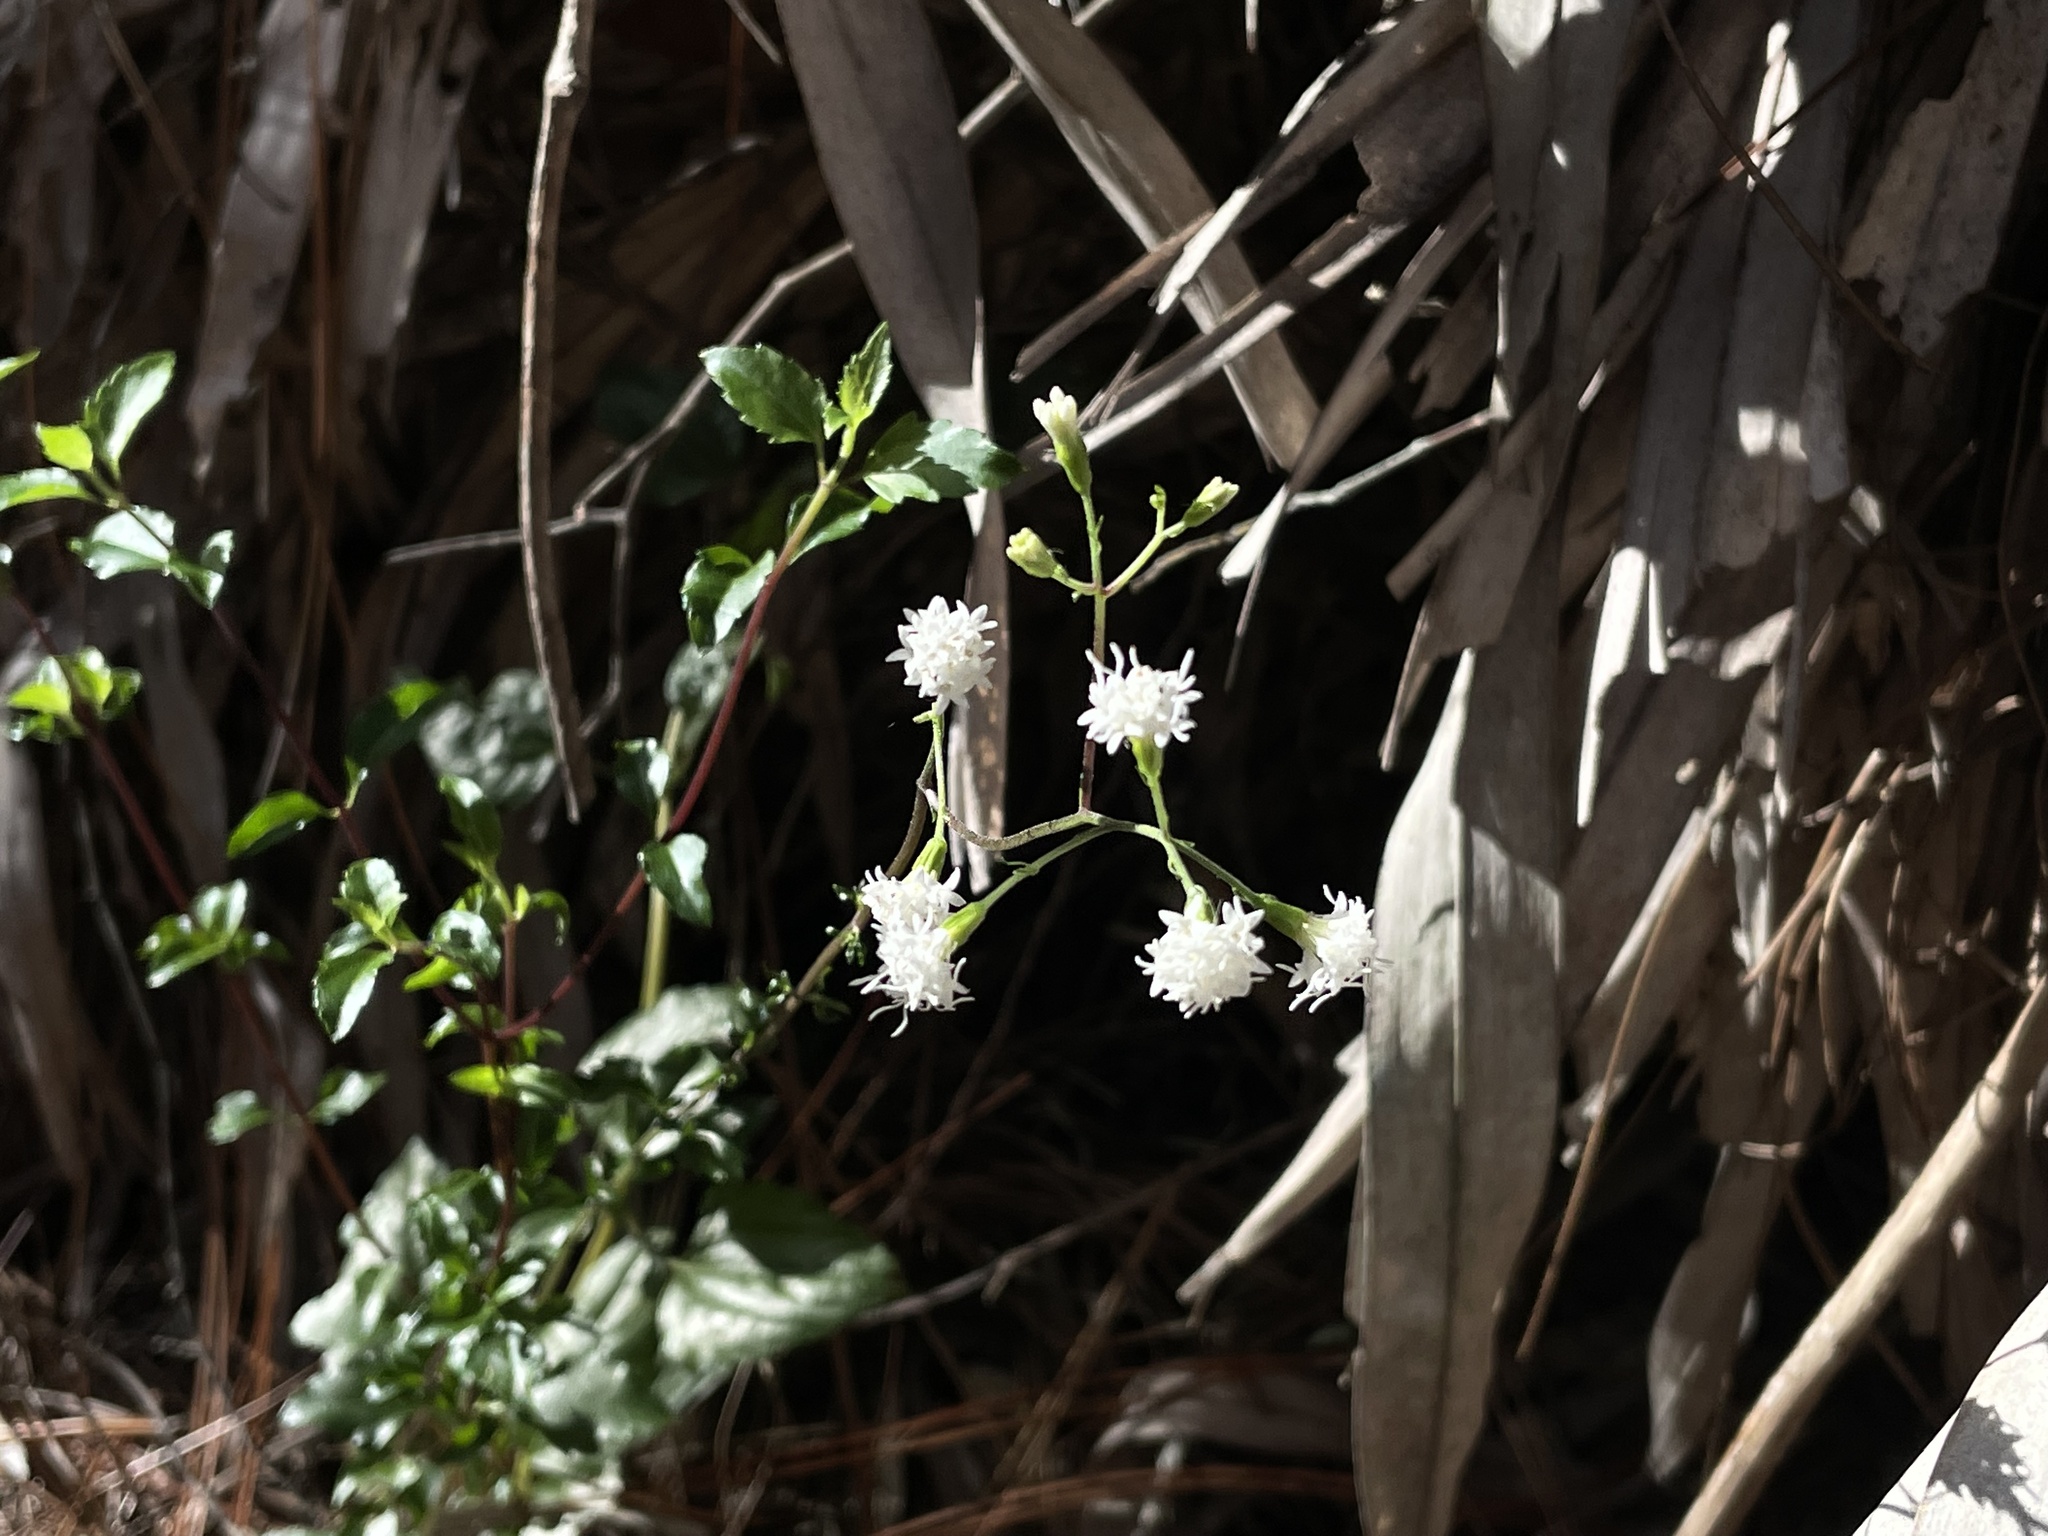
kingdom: Plantae
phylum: Tracheophyta
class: Magnoliopsida
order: Asterales
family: Asteraceae
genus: Ageratina
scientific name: Ageratina jucunda
